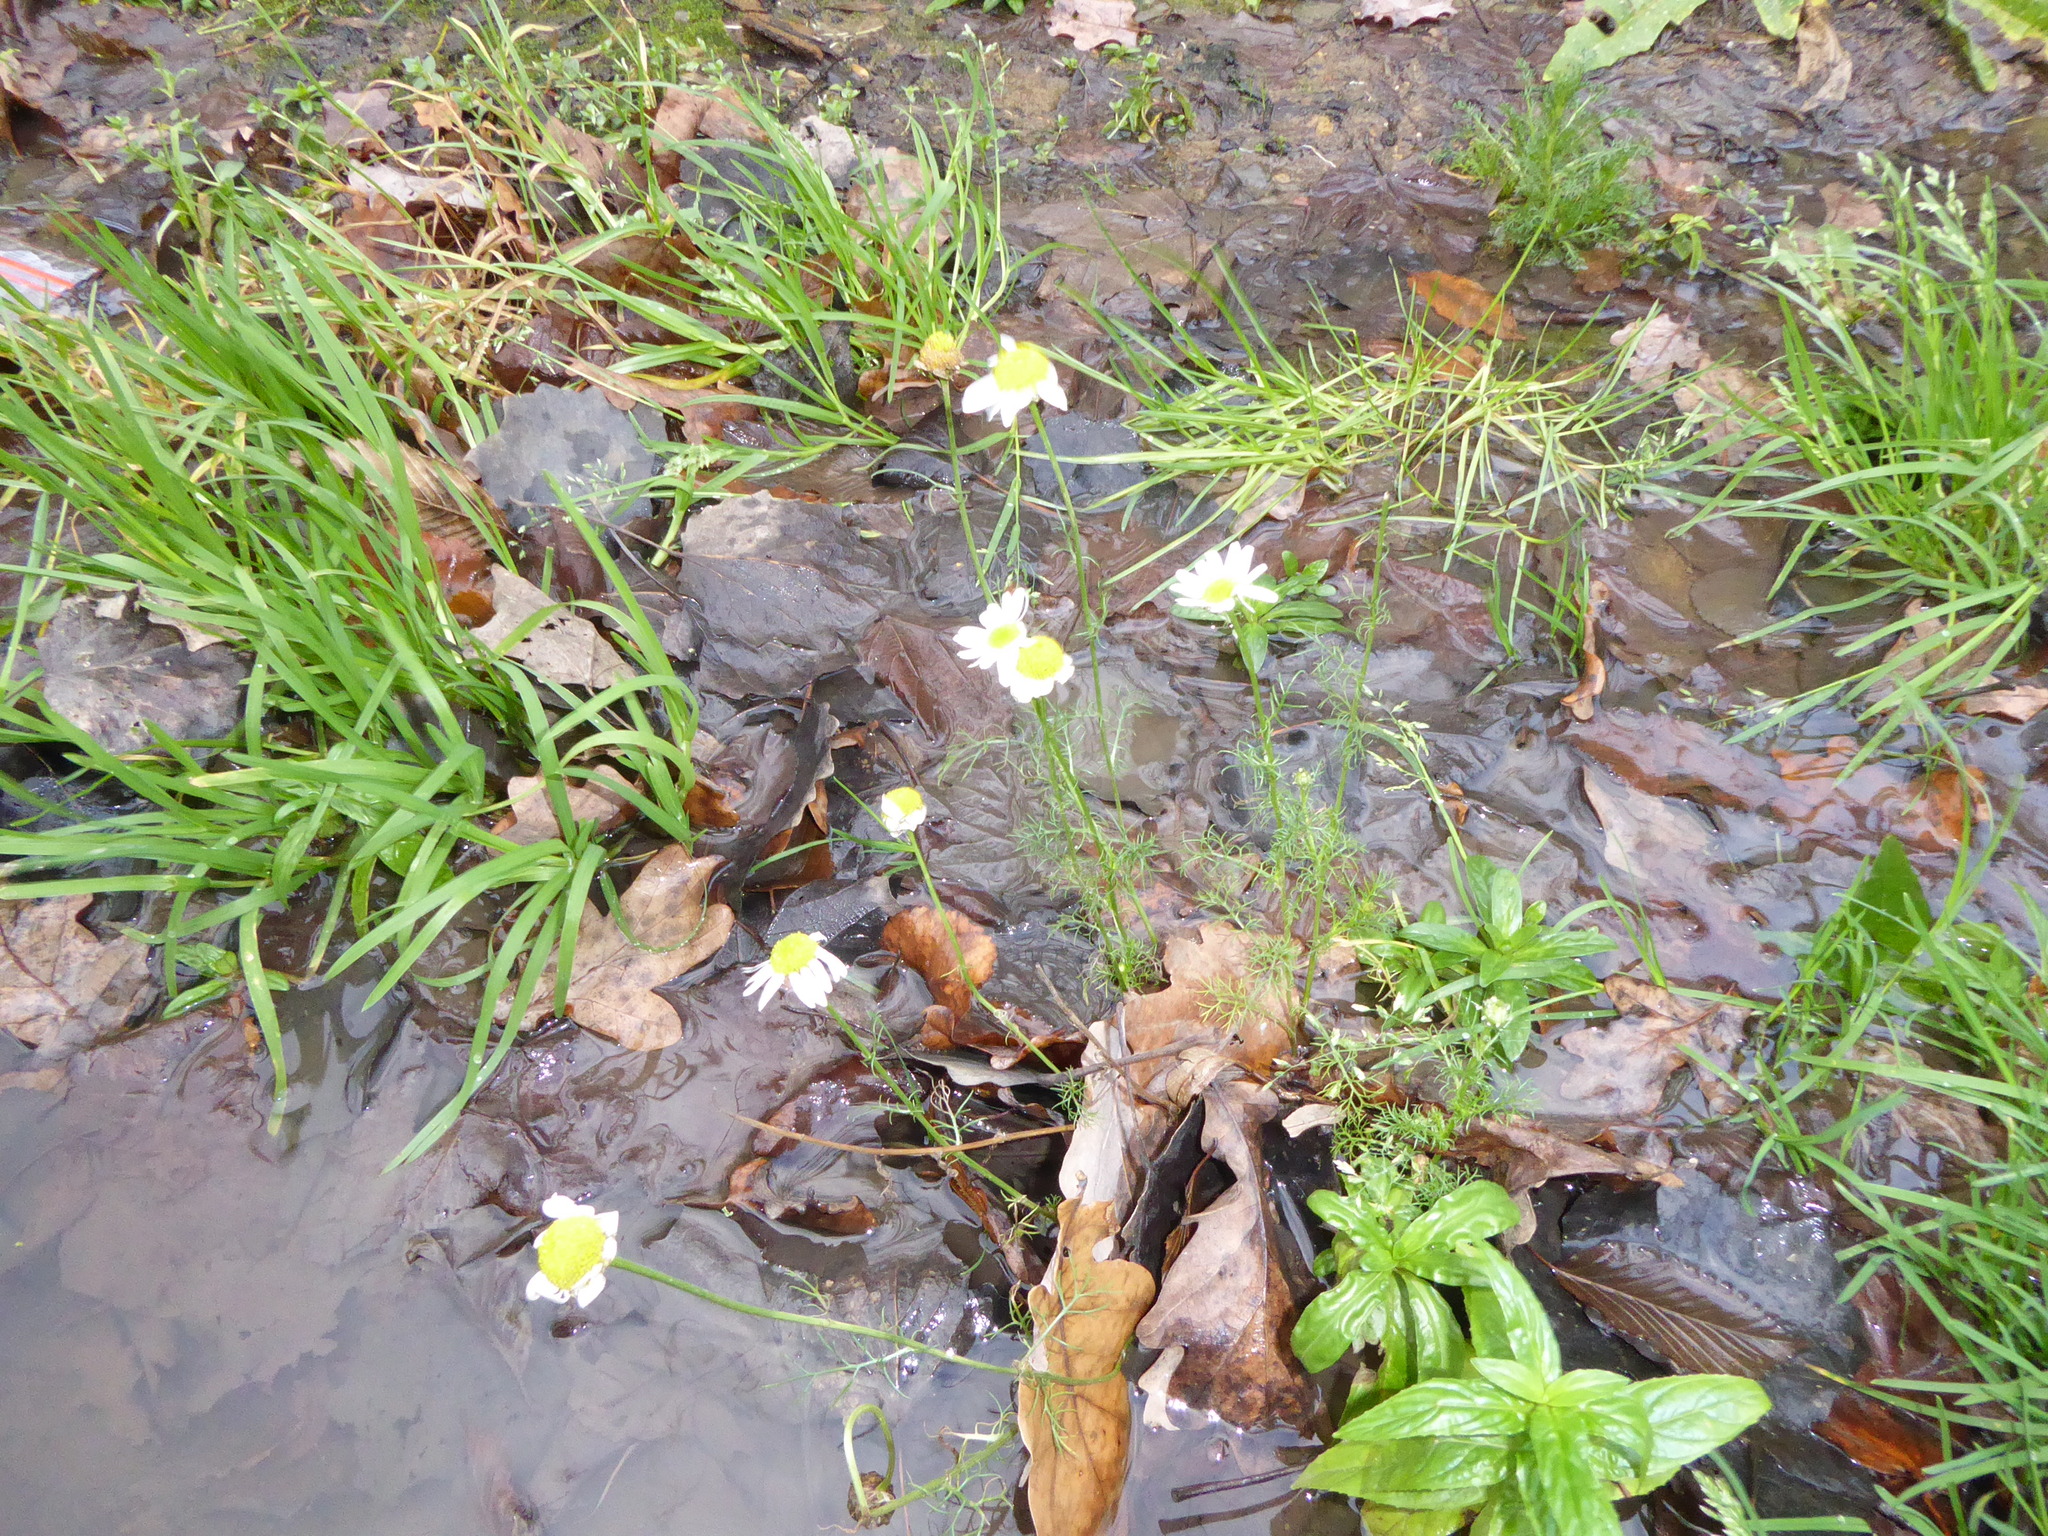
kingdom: Plantae
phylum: Tracheophyta
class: Magnoliopsida
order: Asterales
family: Asteraceae
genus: Tripleurospermum
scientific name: Tripleurospermum inodorum
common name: Scentless mayweed
